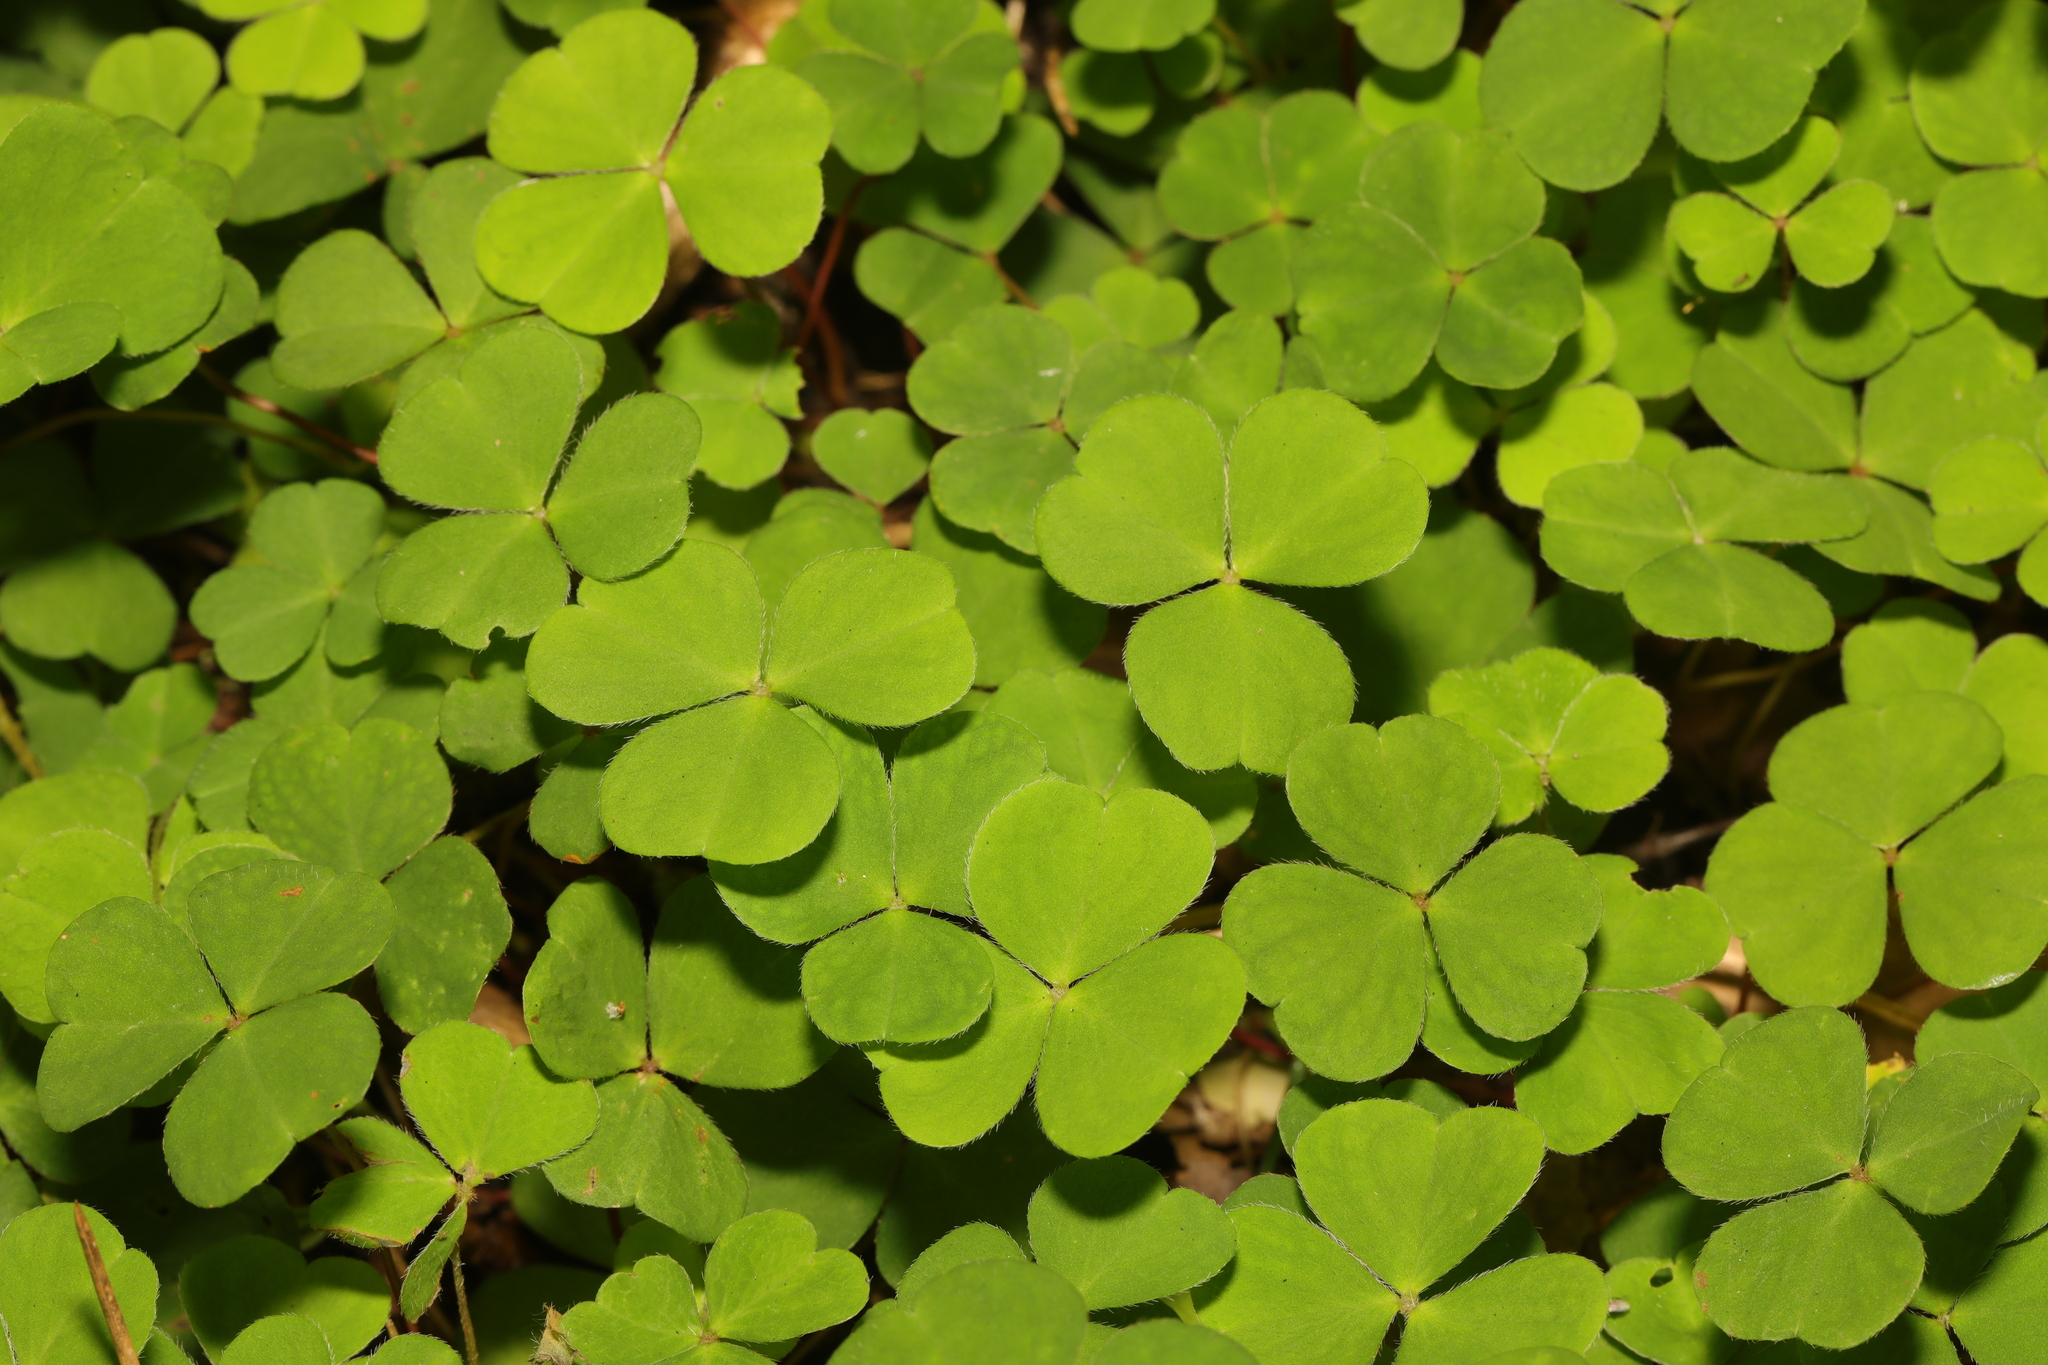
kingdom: Plantae
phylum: Tracheophyta
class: Magnoliopsida
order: Oxalidales
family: Oxalidaceae
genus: Oxalis
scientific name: Oxalis acetosella
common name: Wood-sorrel
